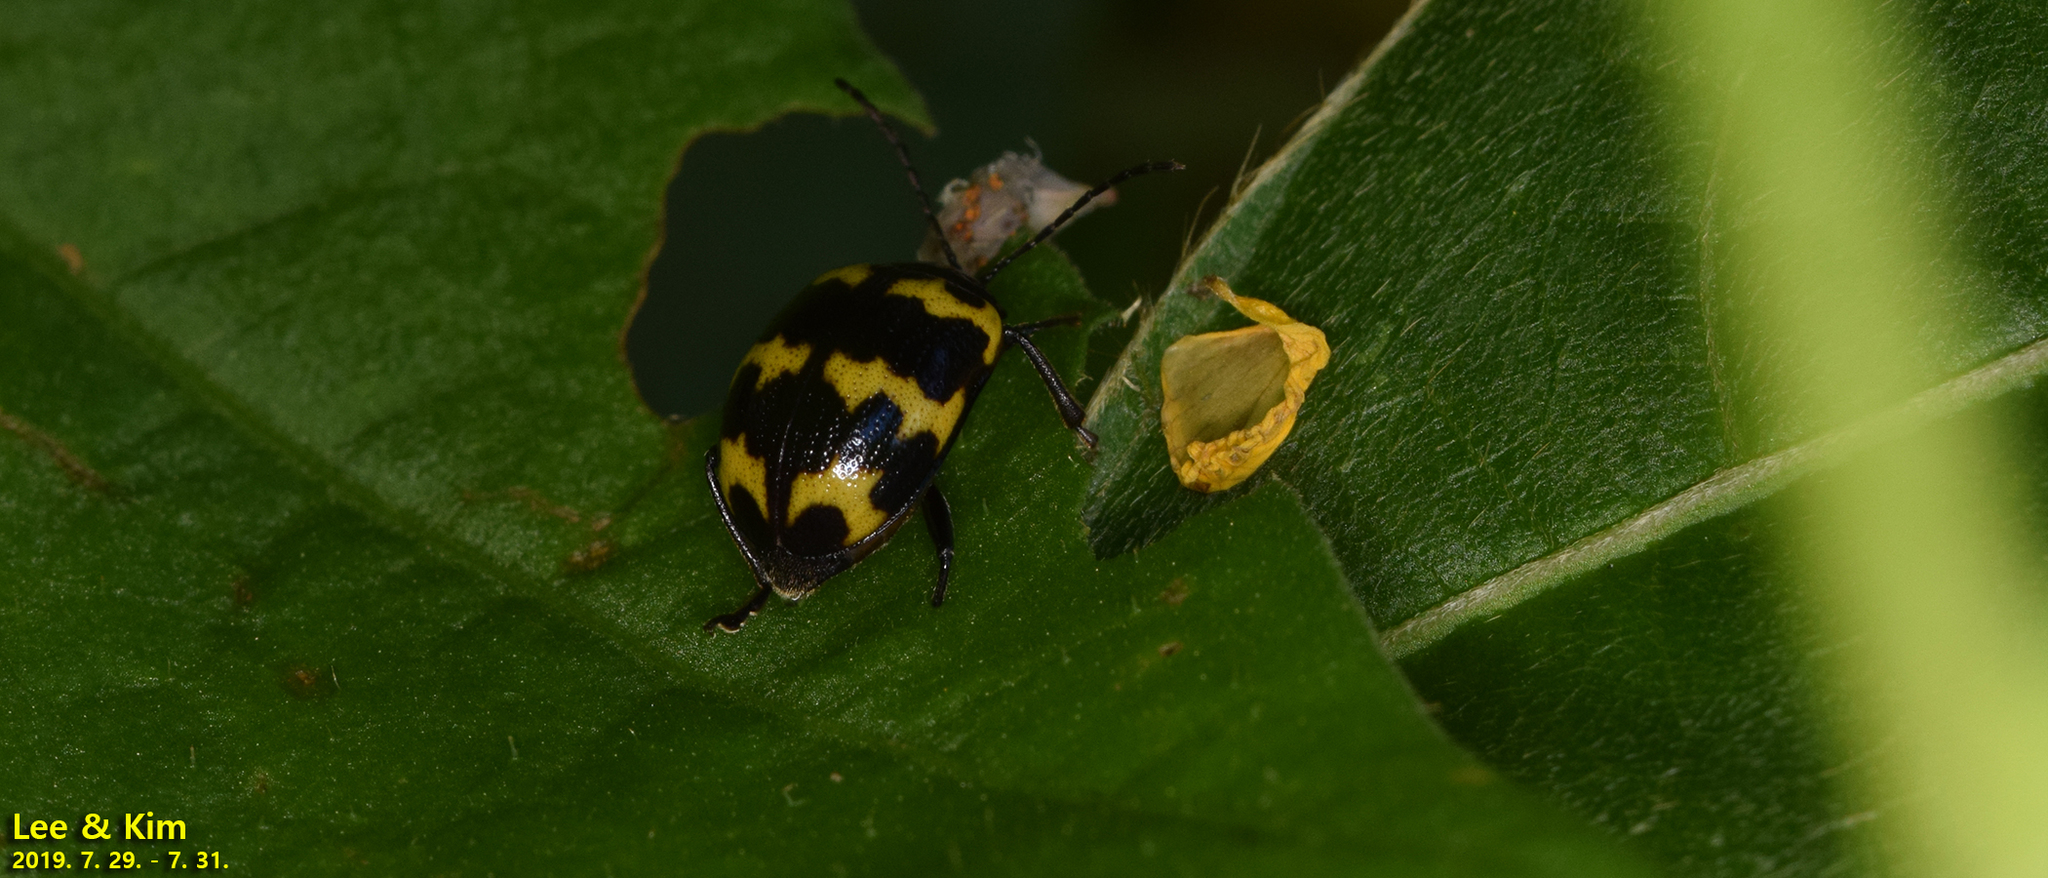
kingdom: Animalia
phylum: Arthropoda
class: Insecta
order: Coleoptera
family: Chrysomelidae
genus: Gallerucida
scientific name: Gallerucida bifasciata
